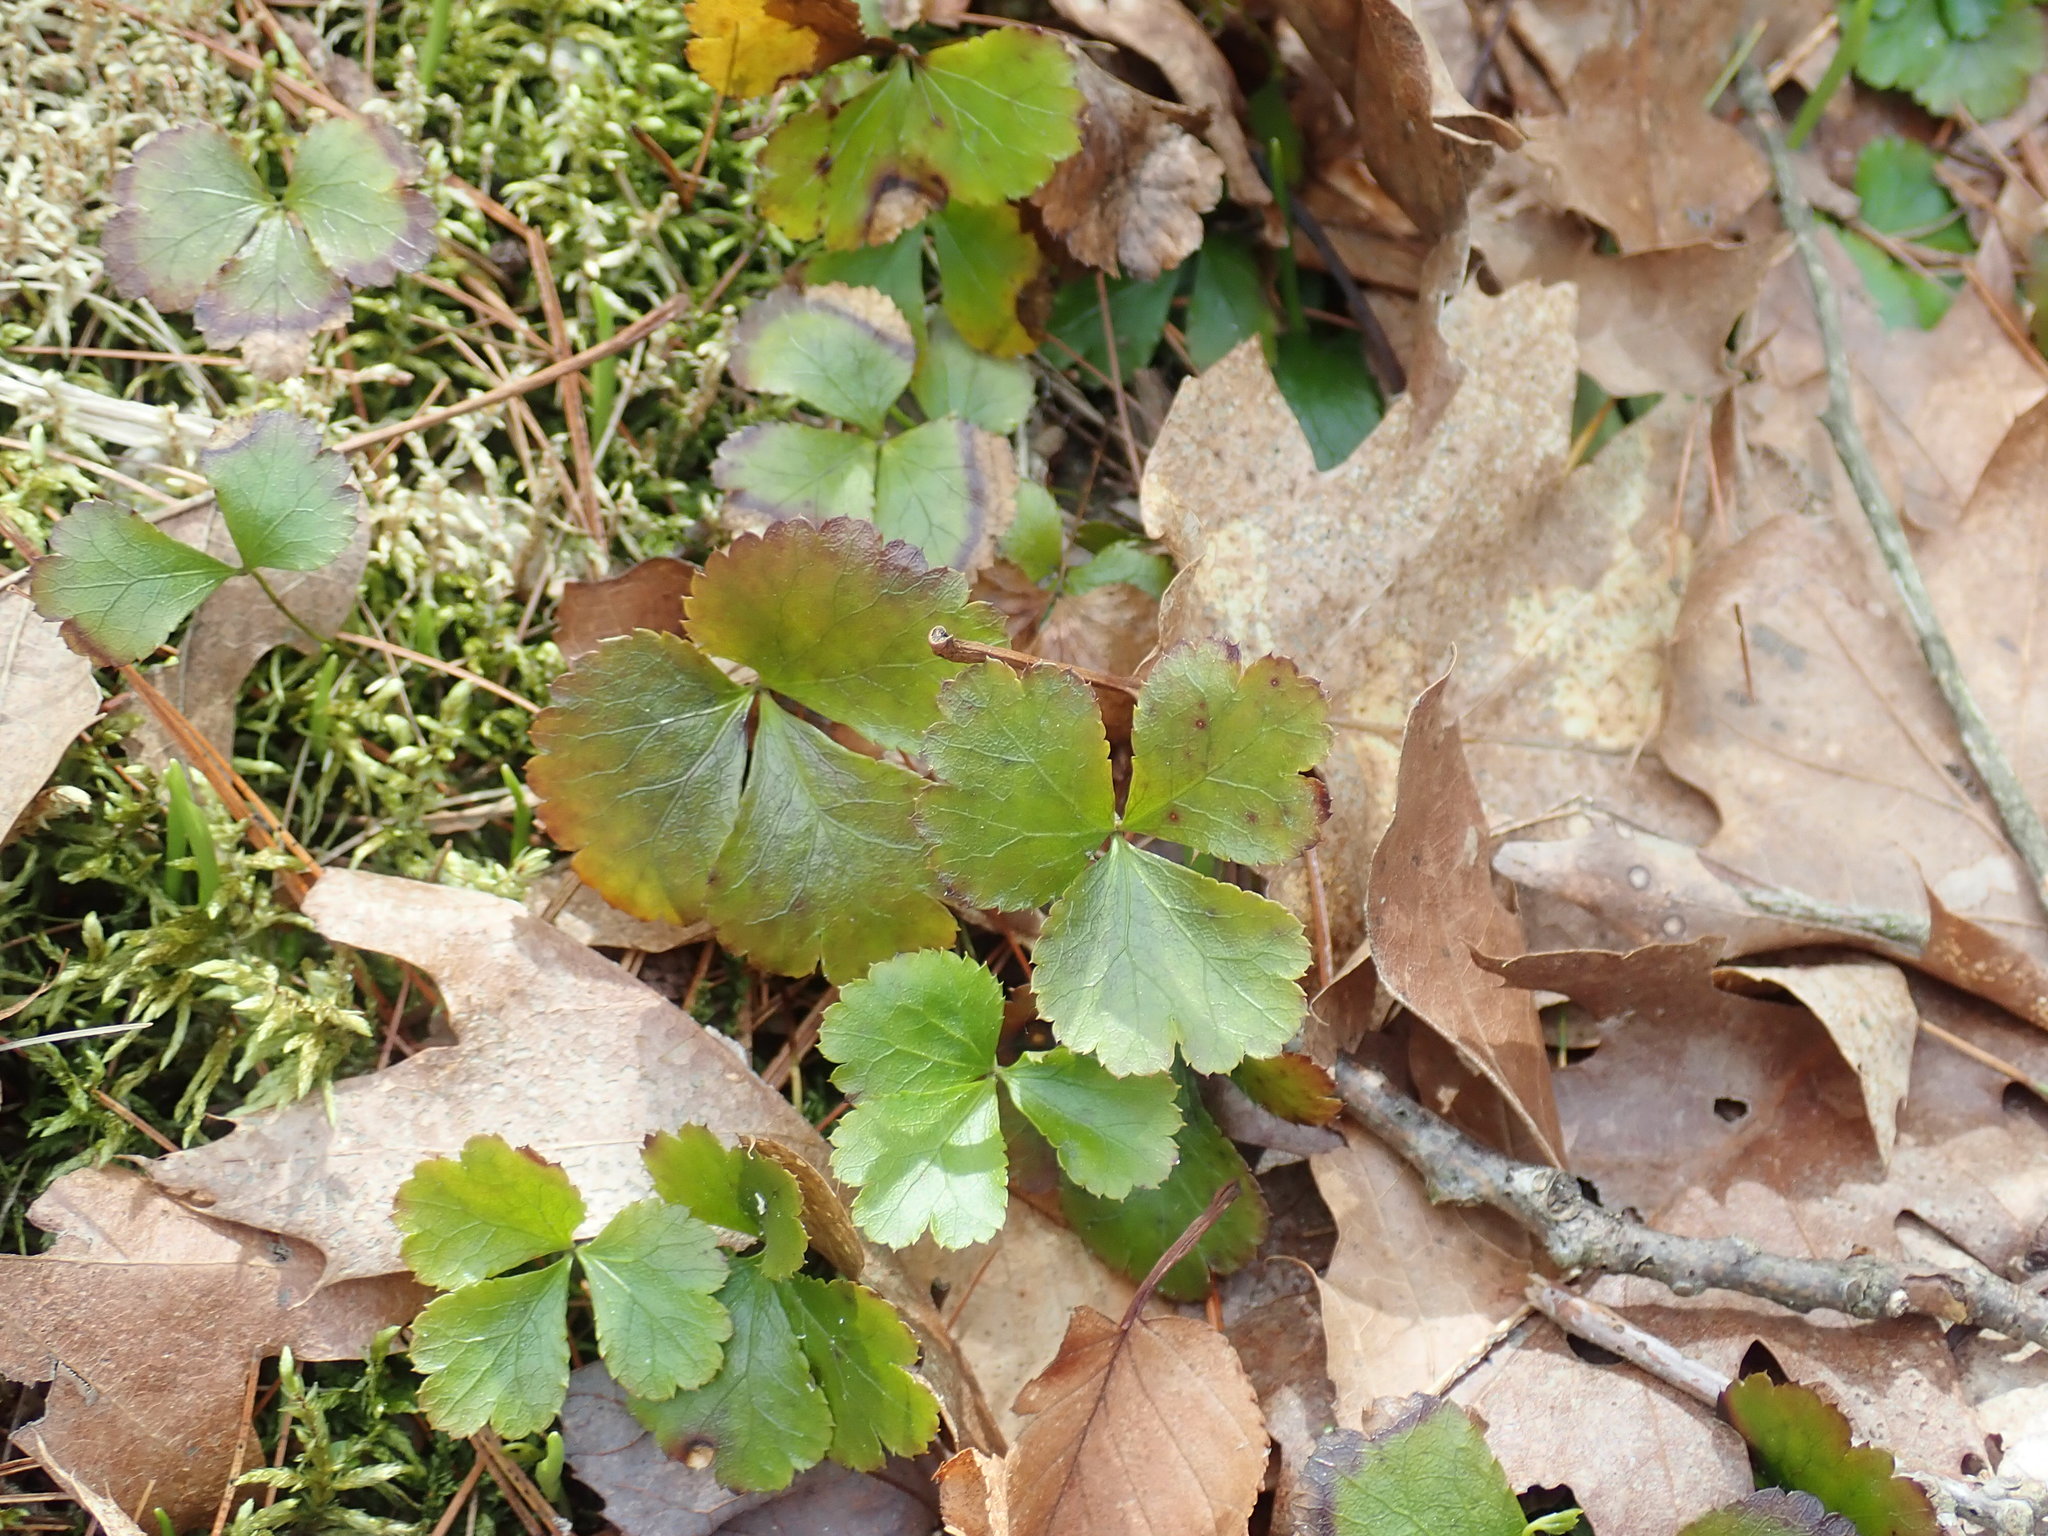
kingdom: Plantae
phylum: Tracheophyta
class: Magnoliopsida
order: Ranunculales
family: Ranunculaceae
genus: Coptis
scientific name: Coptis trifolia
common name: Canker-root
